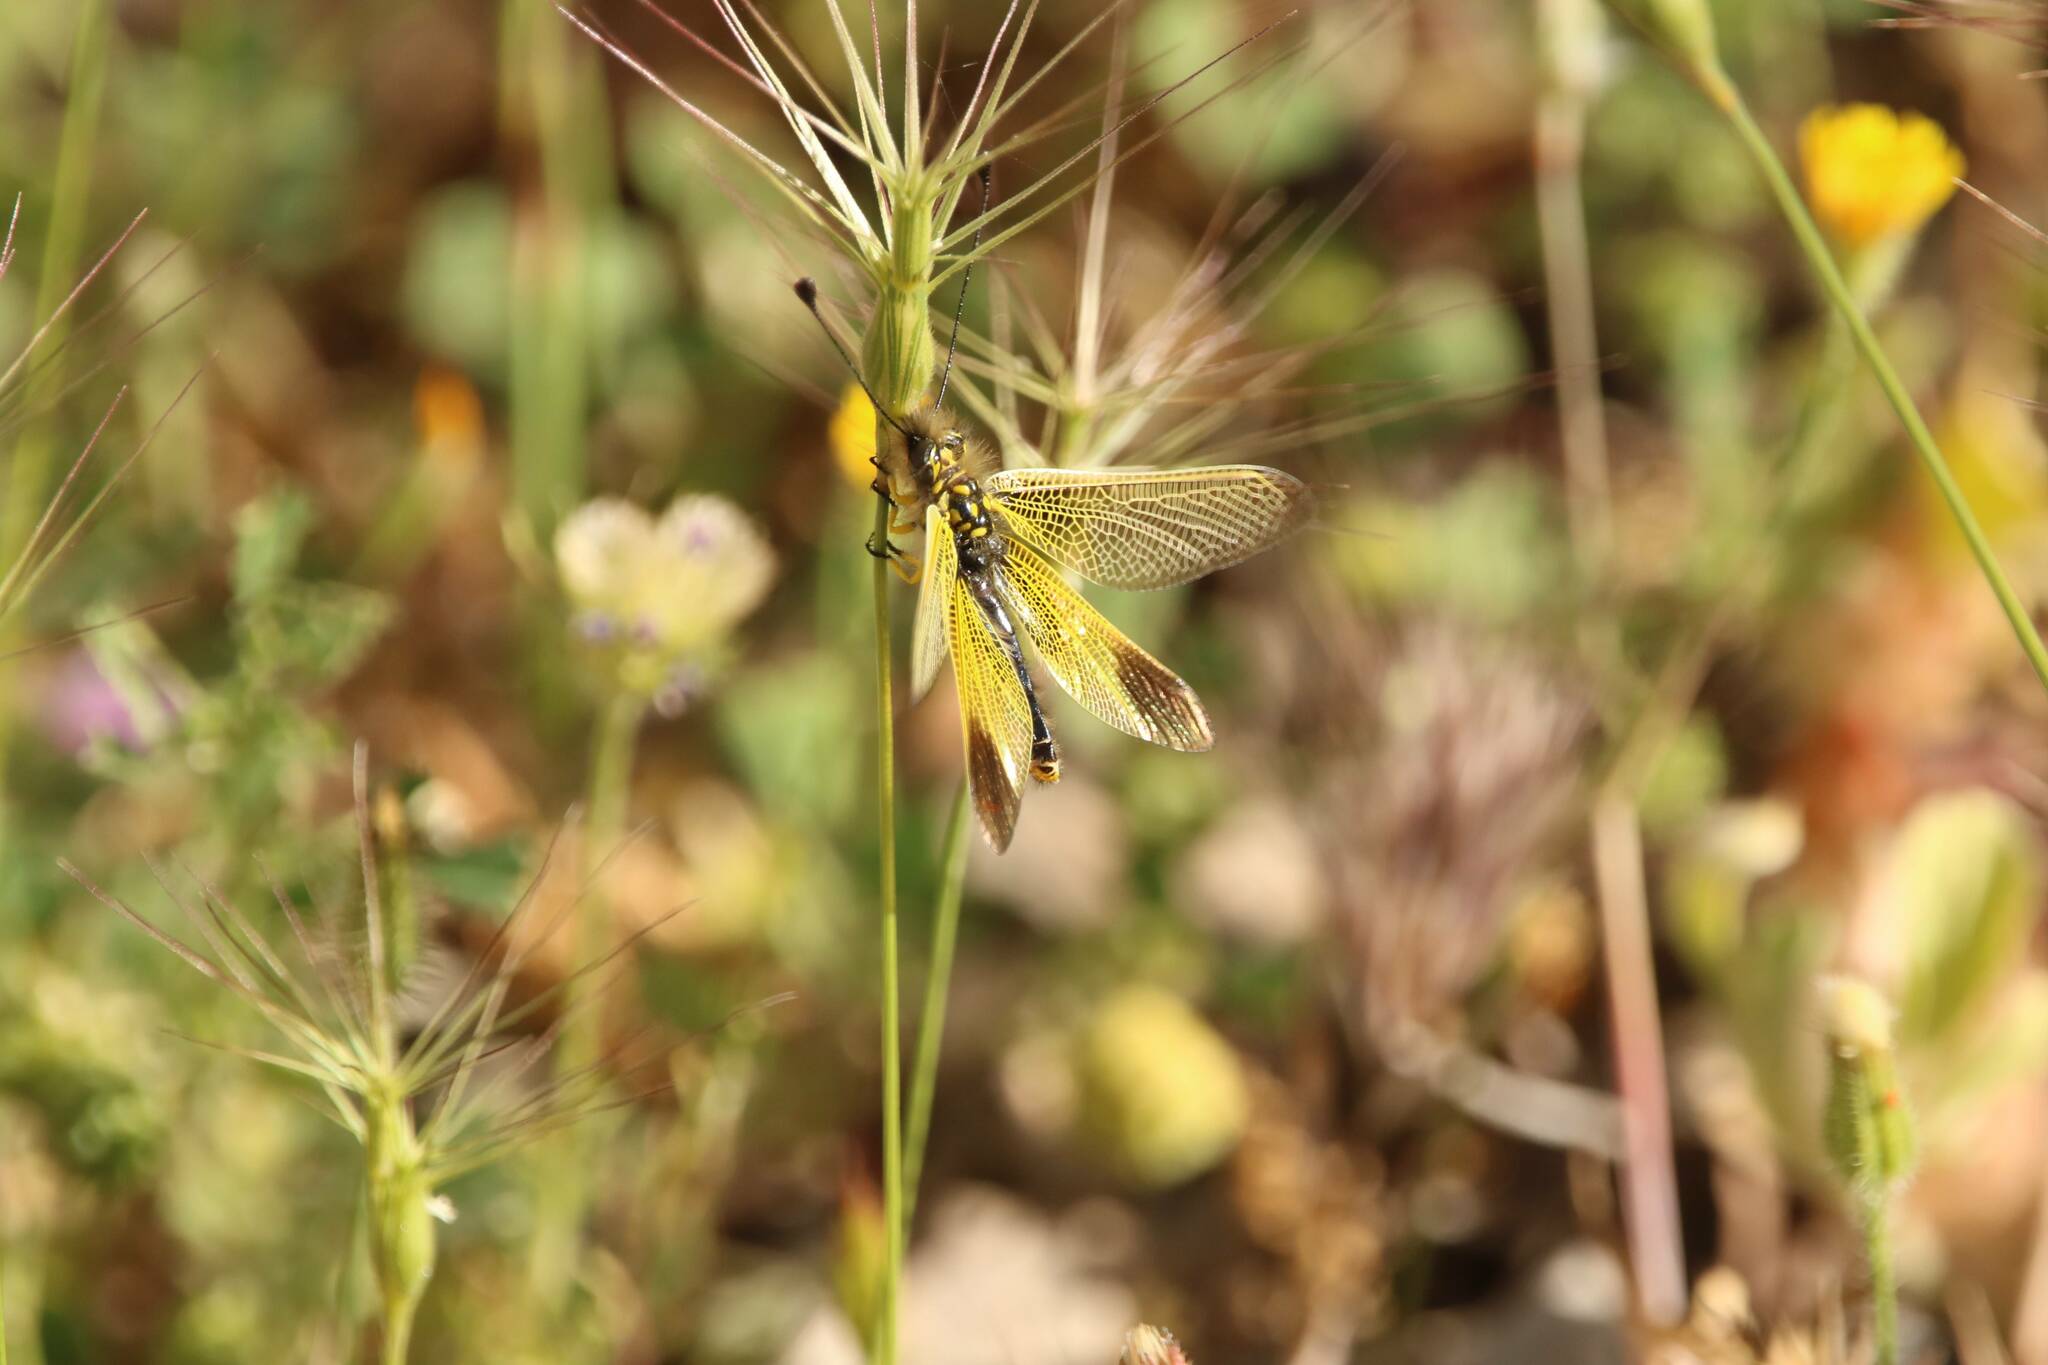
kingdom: Animalia
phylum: Arthropoda
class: Insecta
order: Neuroptera
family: Ascalaphidae
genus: Libelloides
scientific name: Libelloides ictericus
